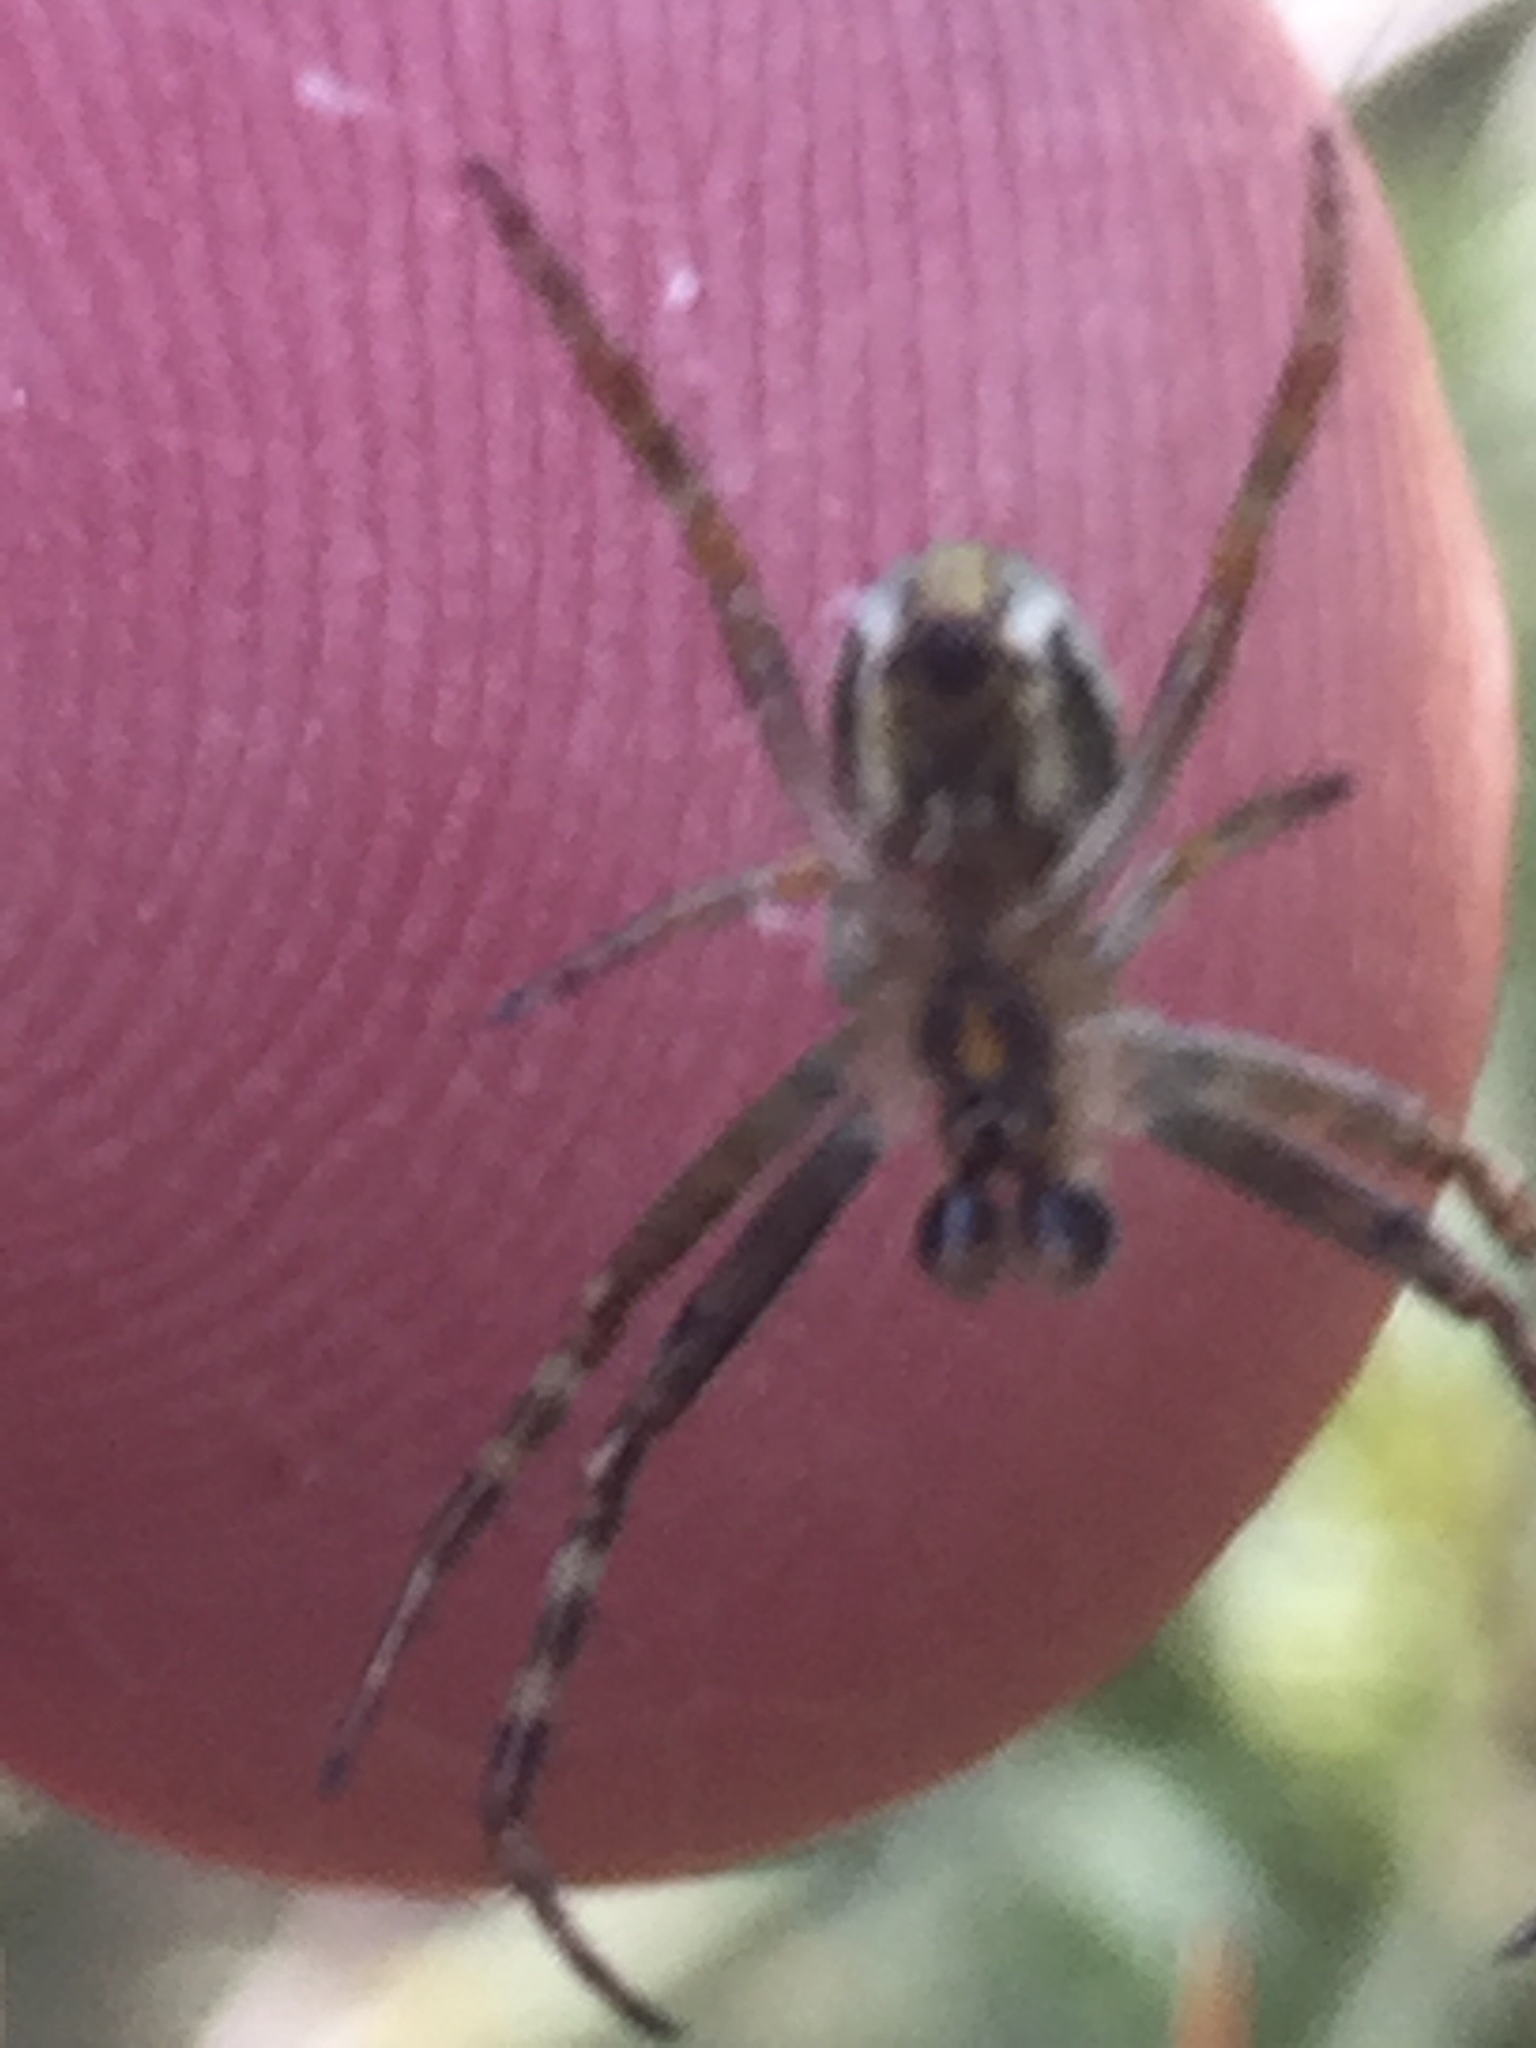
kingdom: Animalia
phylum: Arthropoda
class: Arachnida
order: Araneae
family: Araneidae
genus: Novaranea
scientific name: Novaranea queribunda
